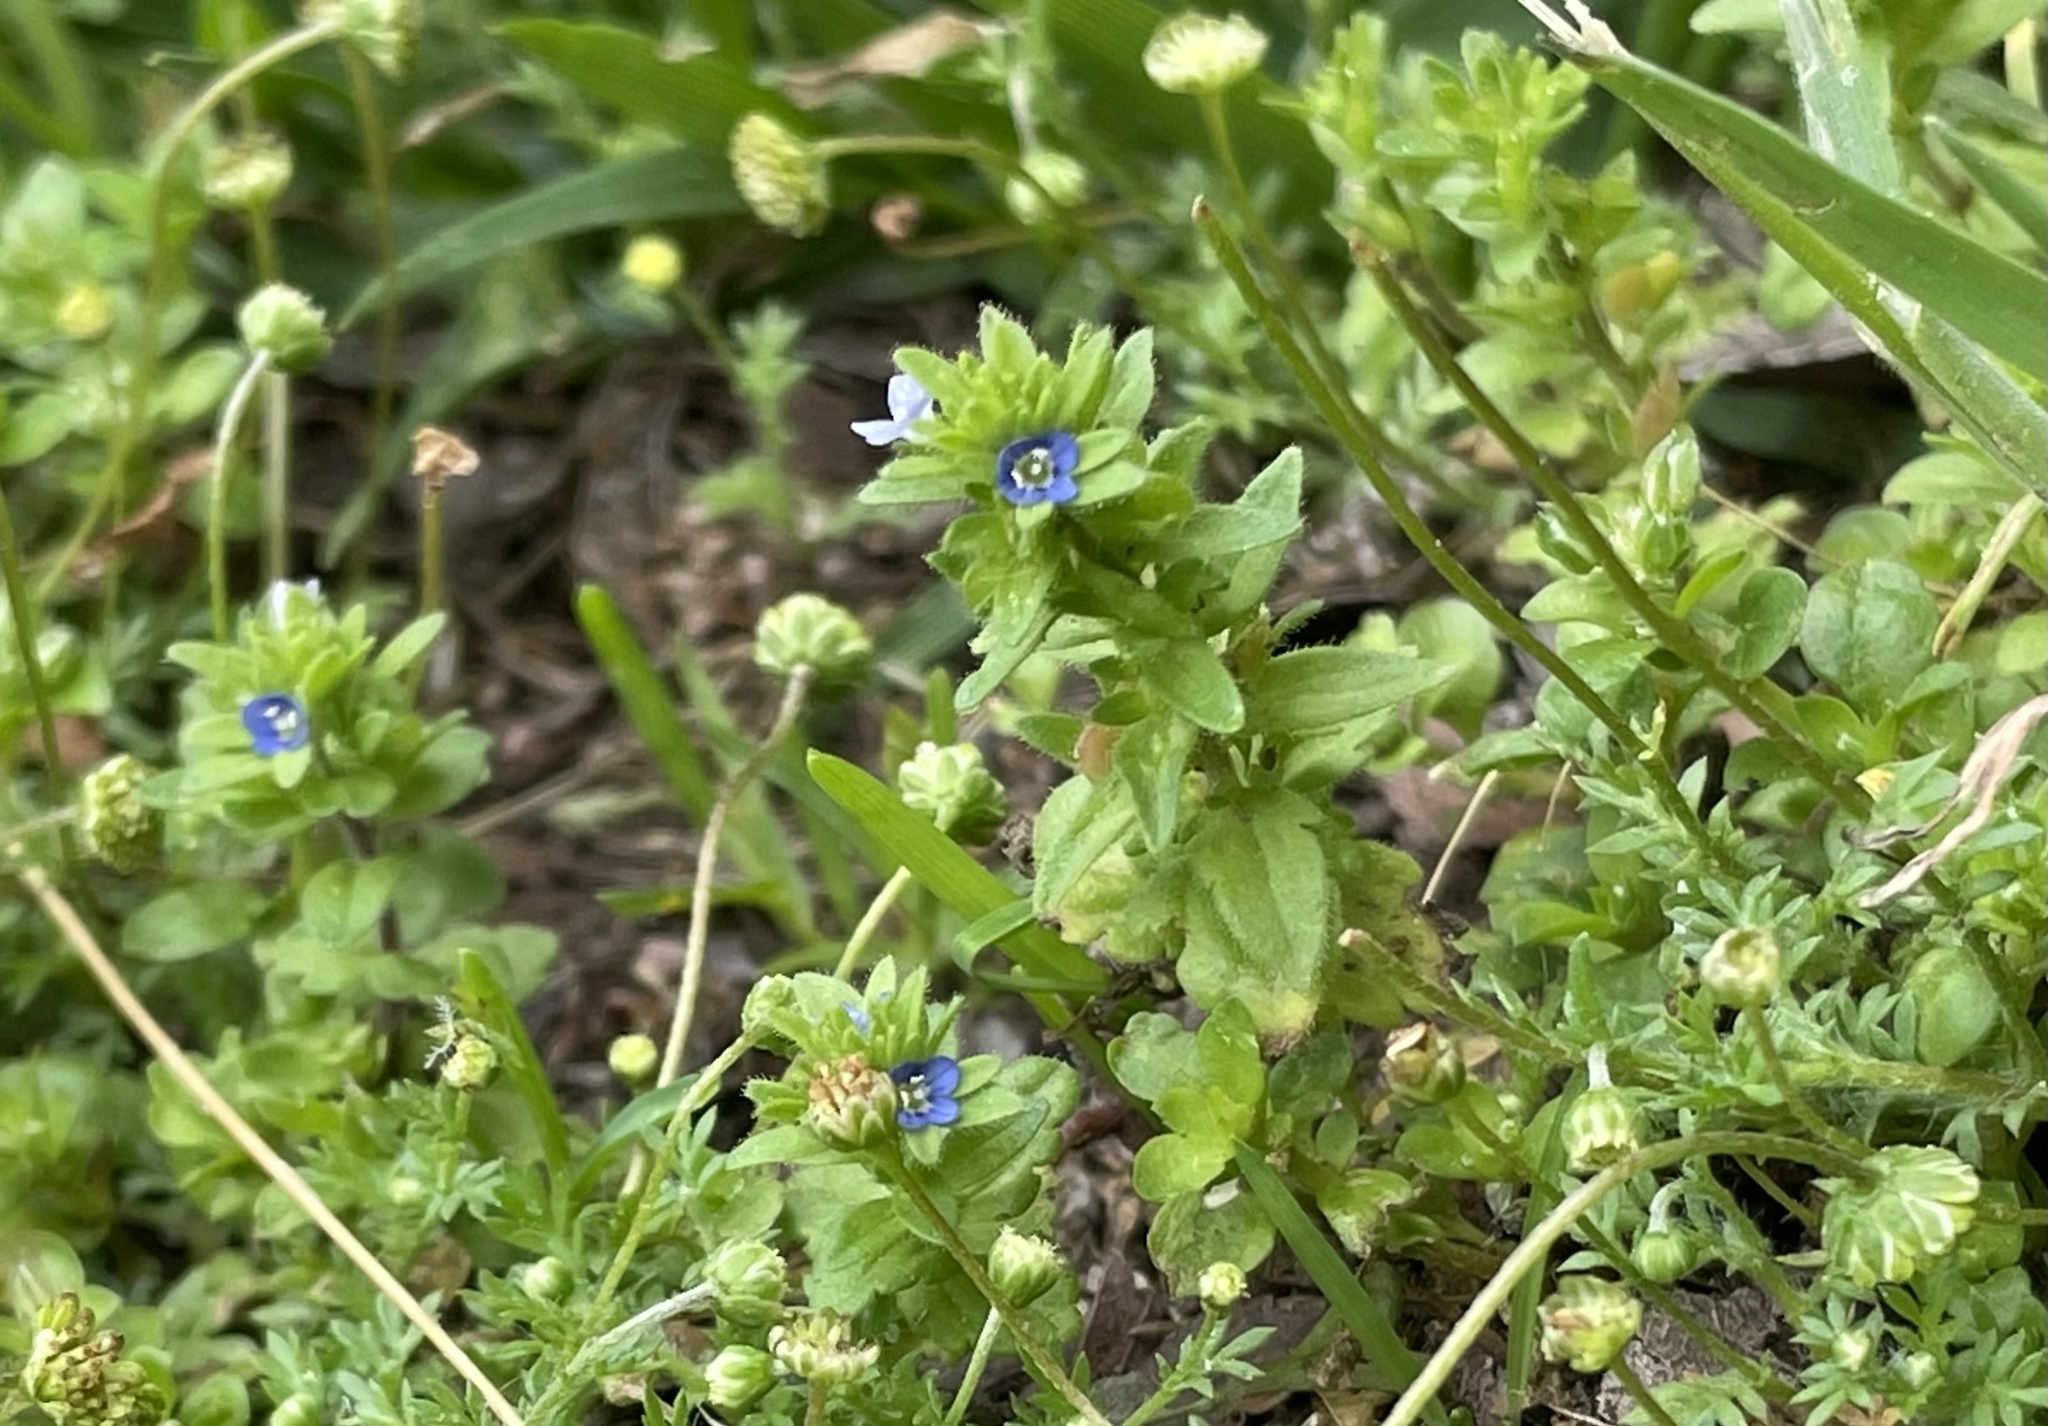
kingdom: Plantae
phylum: Tracheophyta
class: Magnoliopsida
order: Lamiales
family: Plantaginaceae
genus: Veronica
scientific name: Veronica arvensis
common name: Corn speedwell
